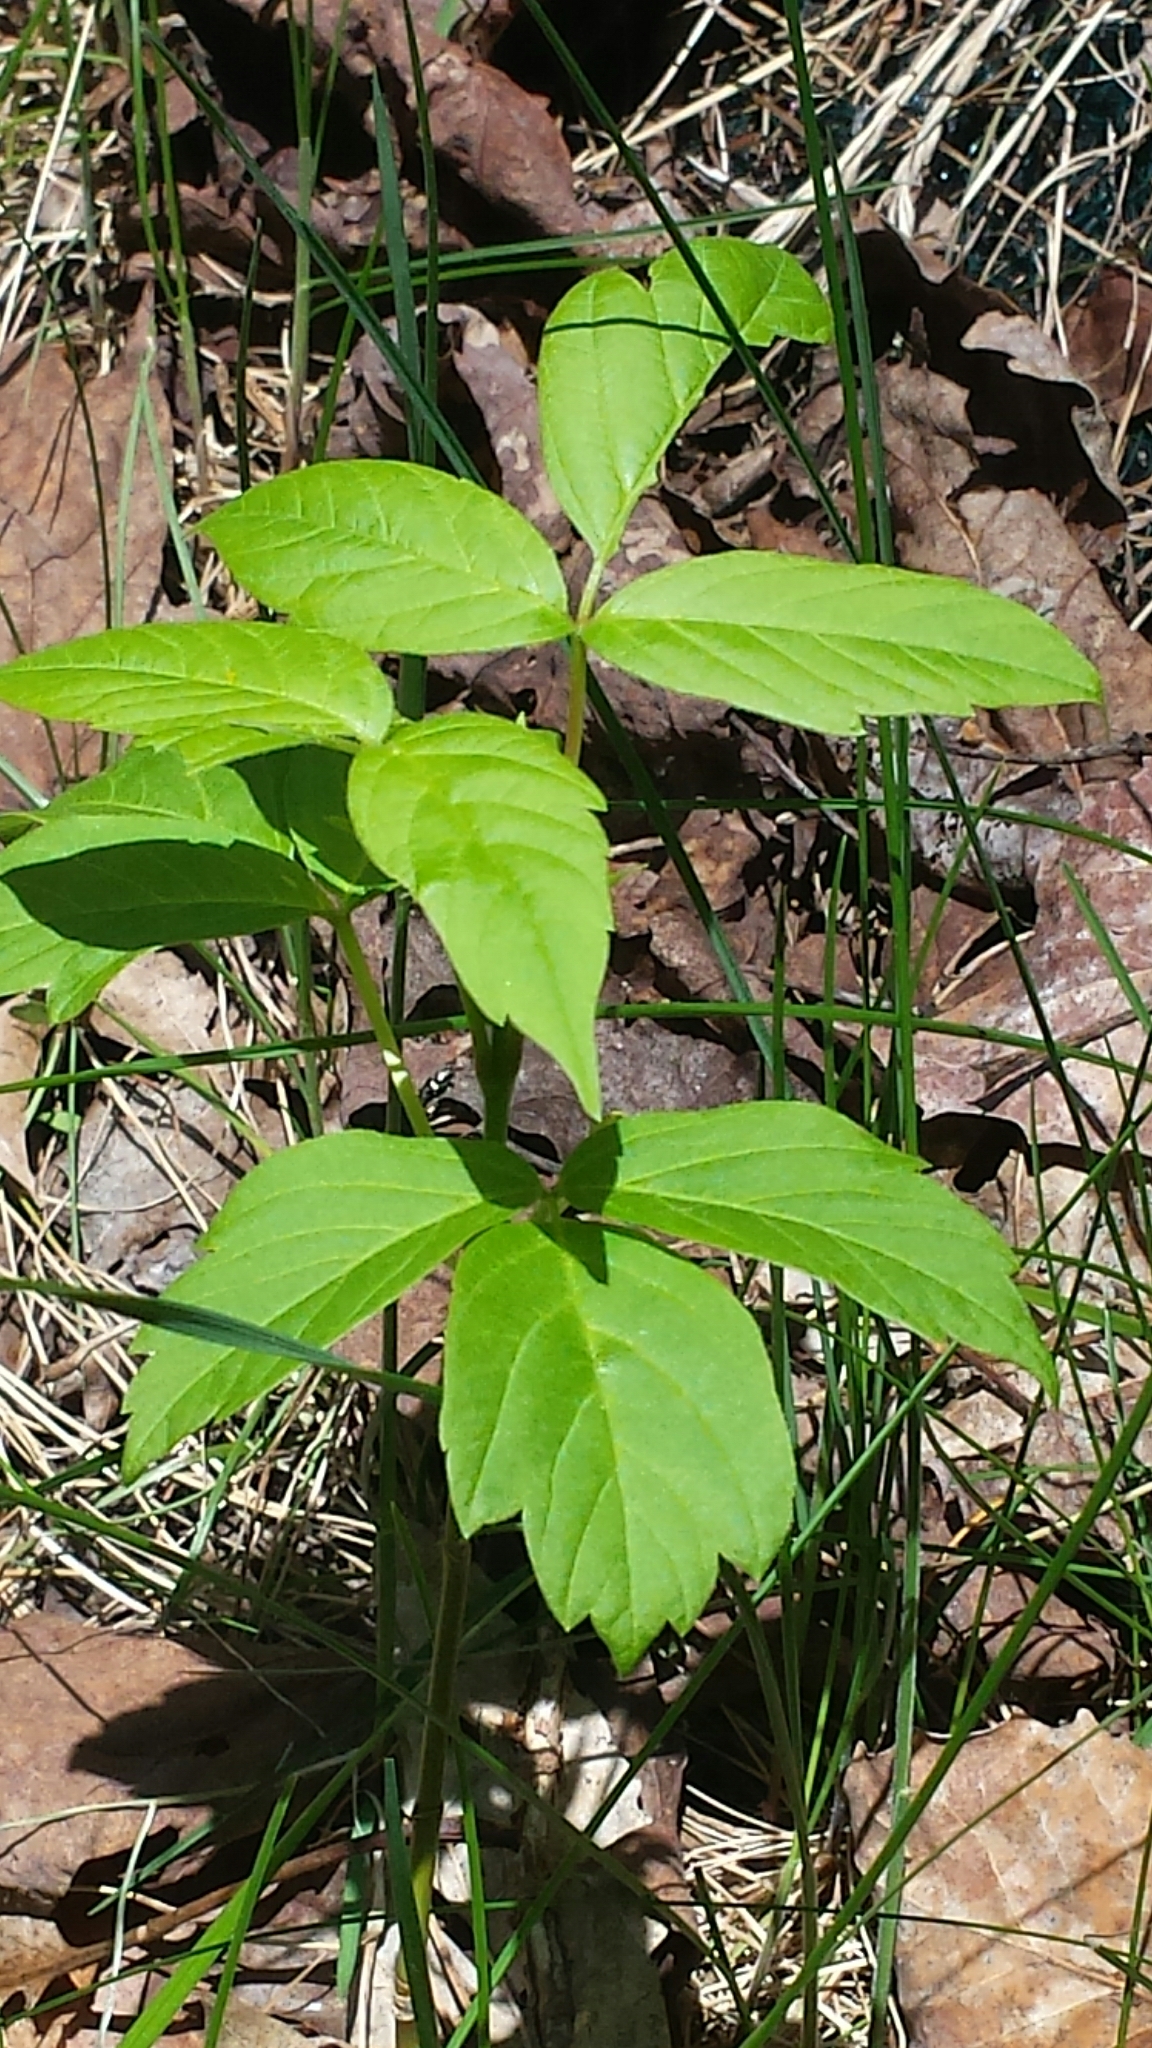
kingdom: Plantae
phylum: Tracheophyta
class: Magnoliopsida
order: Sapindales
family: Sapindaceae
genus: Acer
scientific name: Acer negundo
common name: Ashleaf maple
